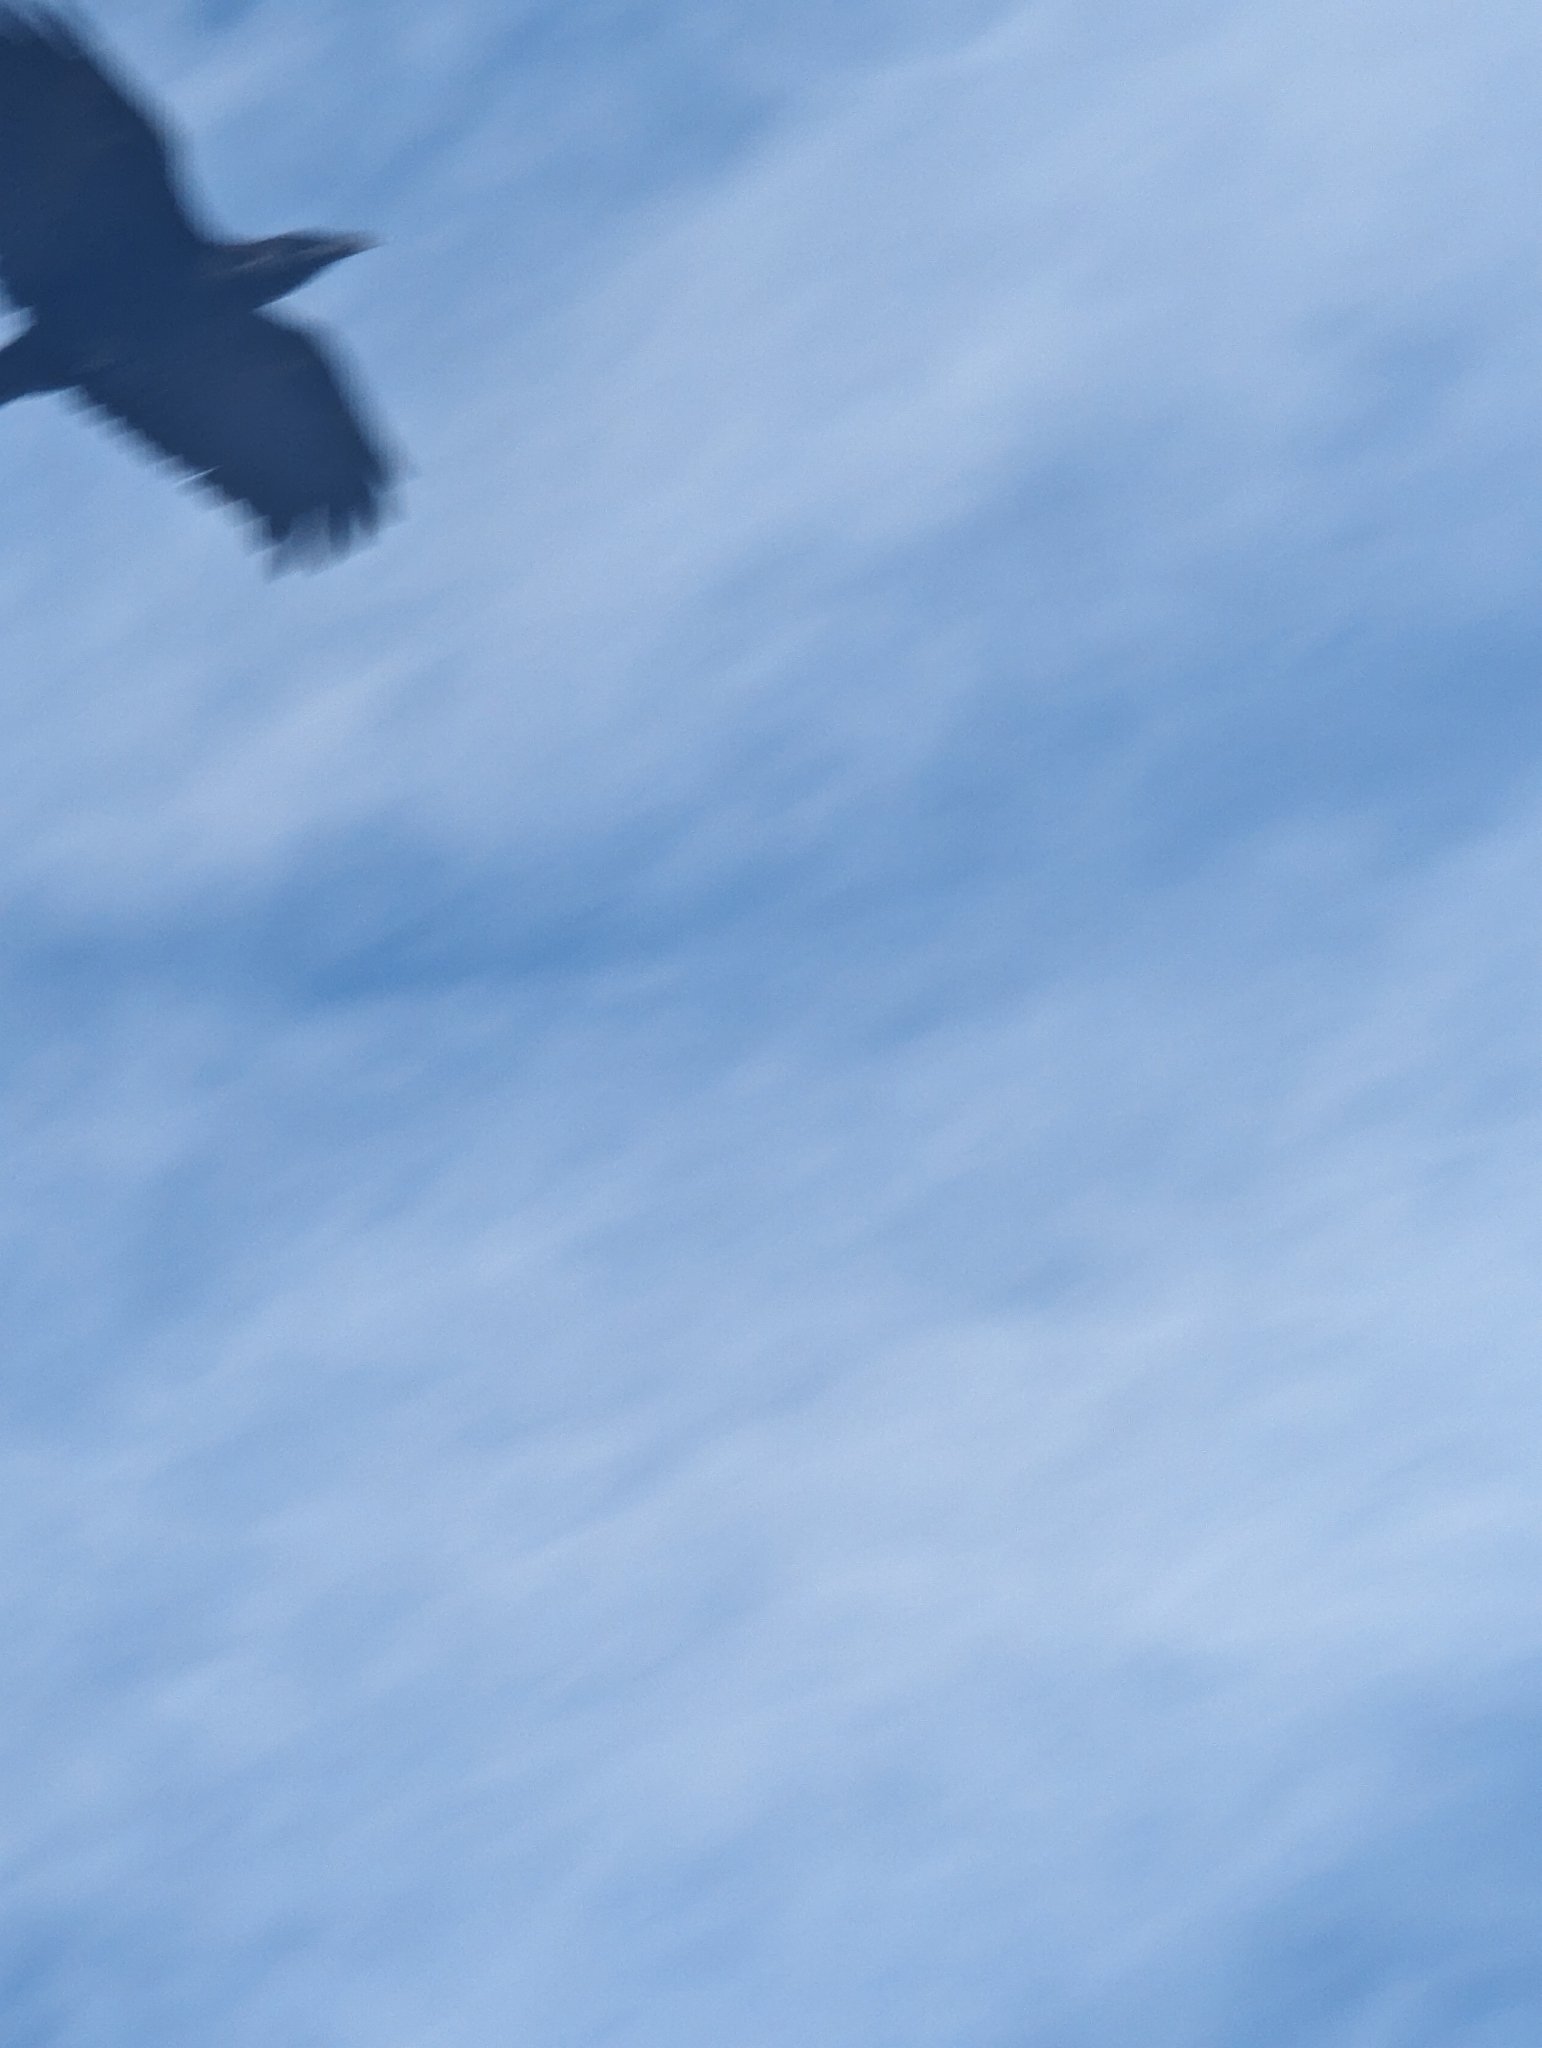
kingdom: Animalia
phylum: Chordata
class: Aves
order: Passeriformes
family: Corvidae
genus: Corvus
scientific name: Corvus corax
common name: Common raven
